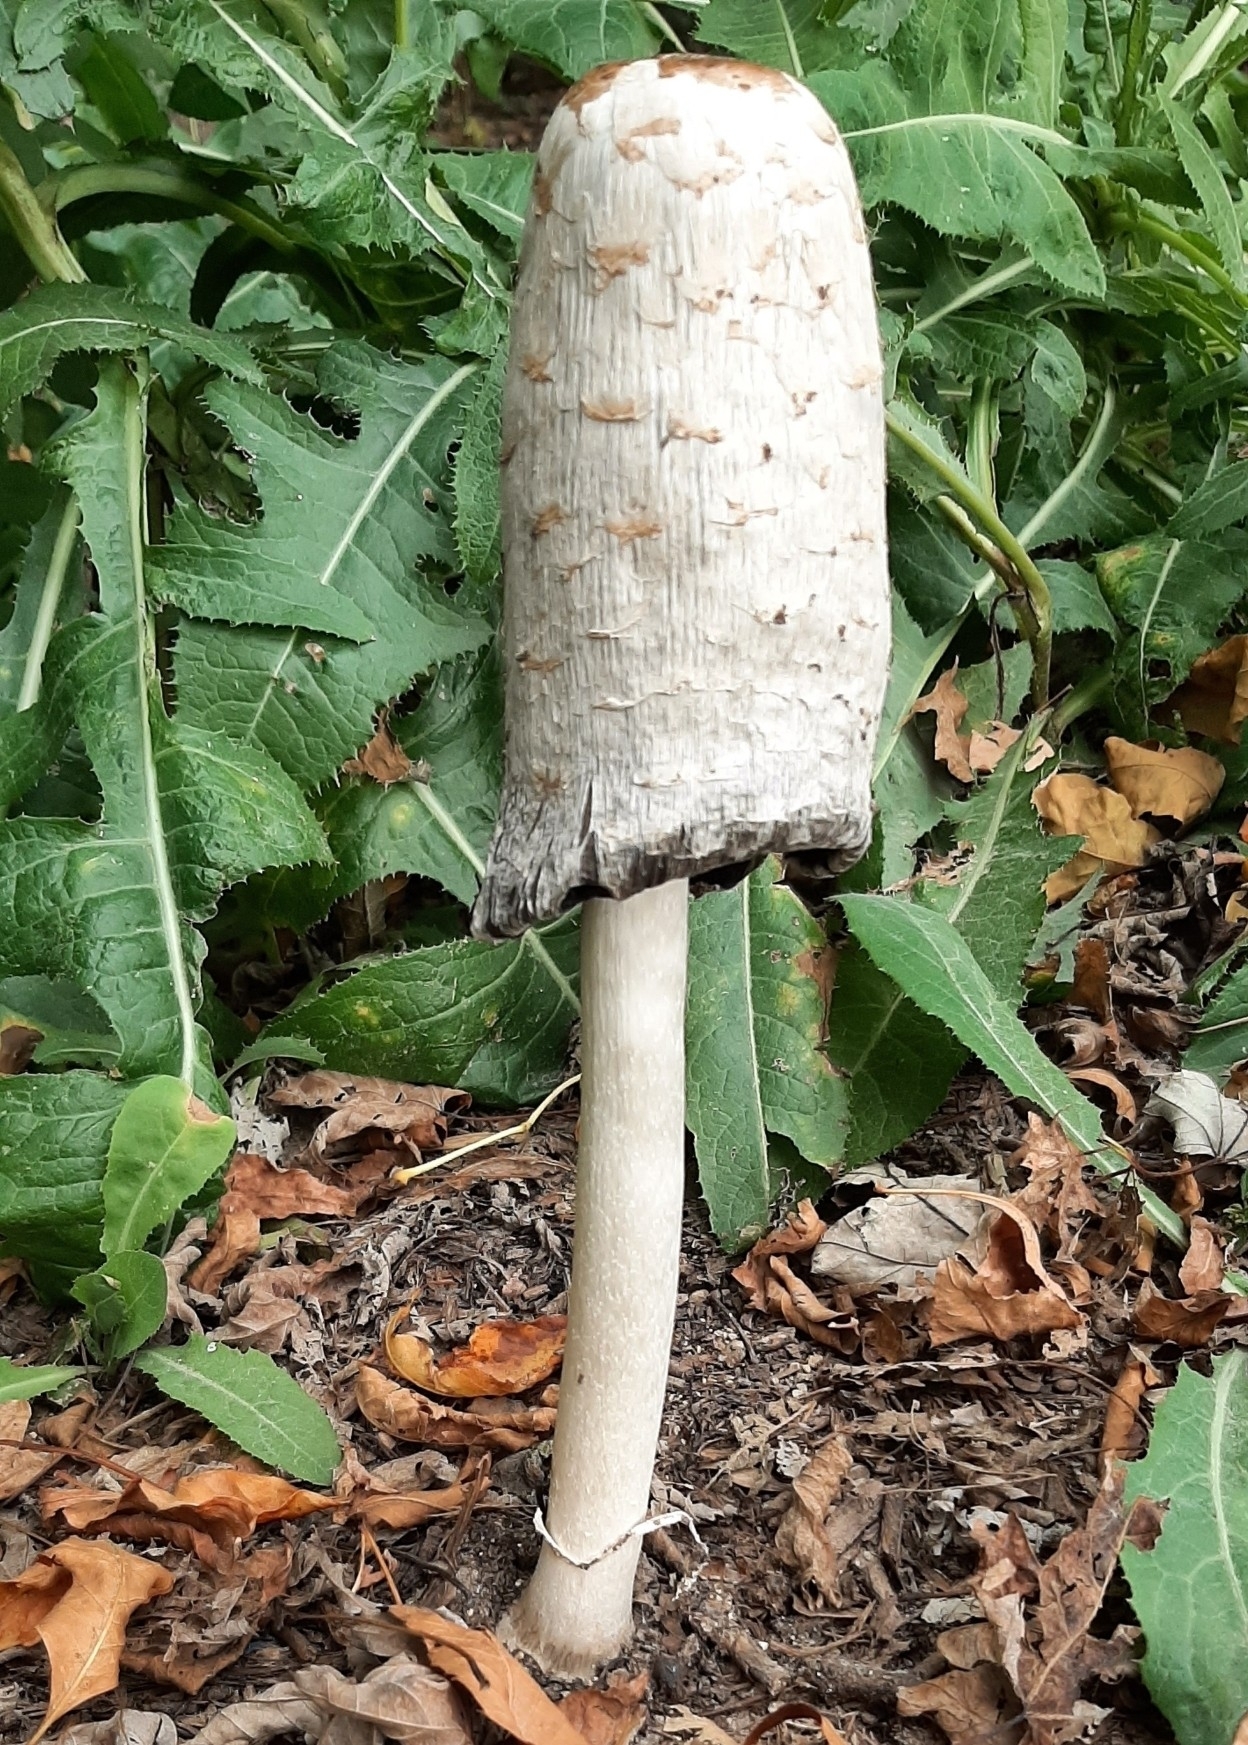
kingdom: Fungi
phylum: Basidiomycota
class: Agaricomycetes
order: Agaricales
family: Agaricaceae
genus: Coprinus
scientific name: Coprinus comatus
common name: Lawyer's wig
